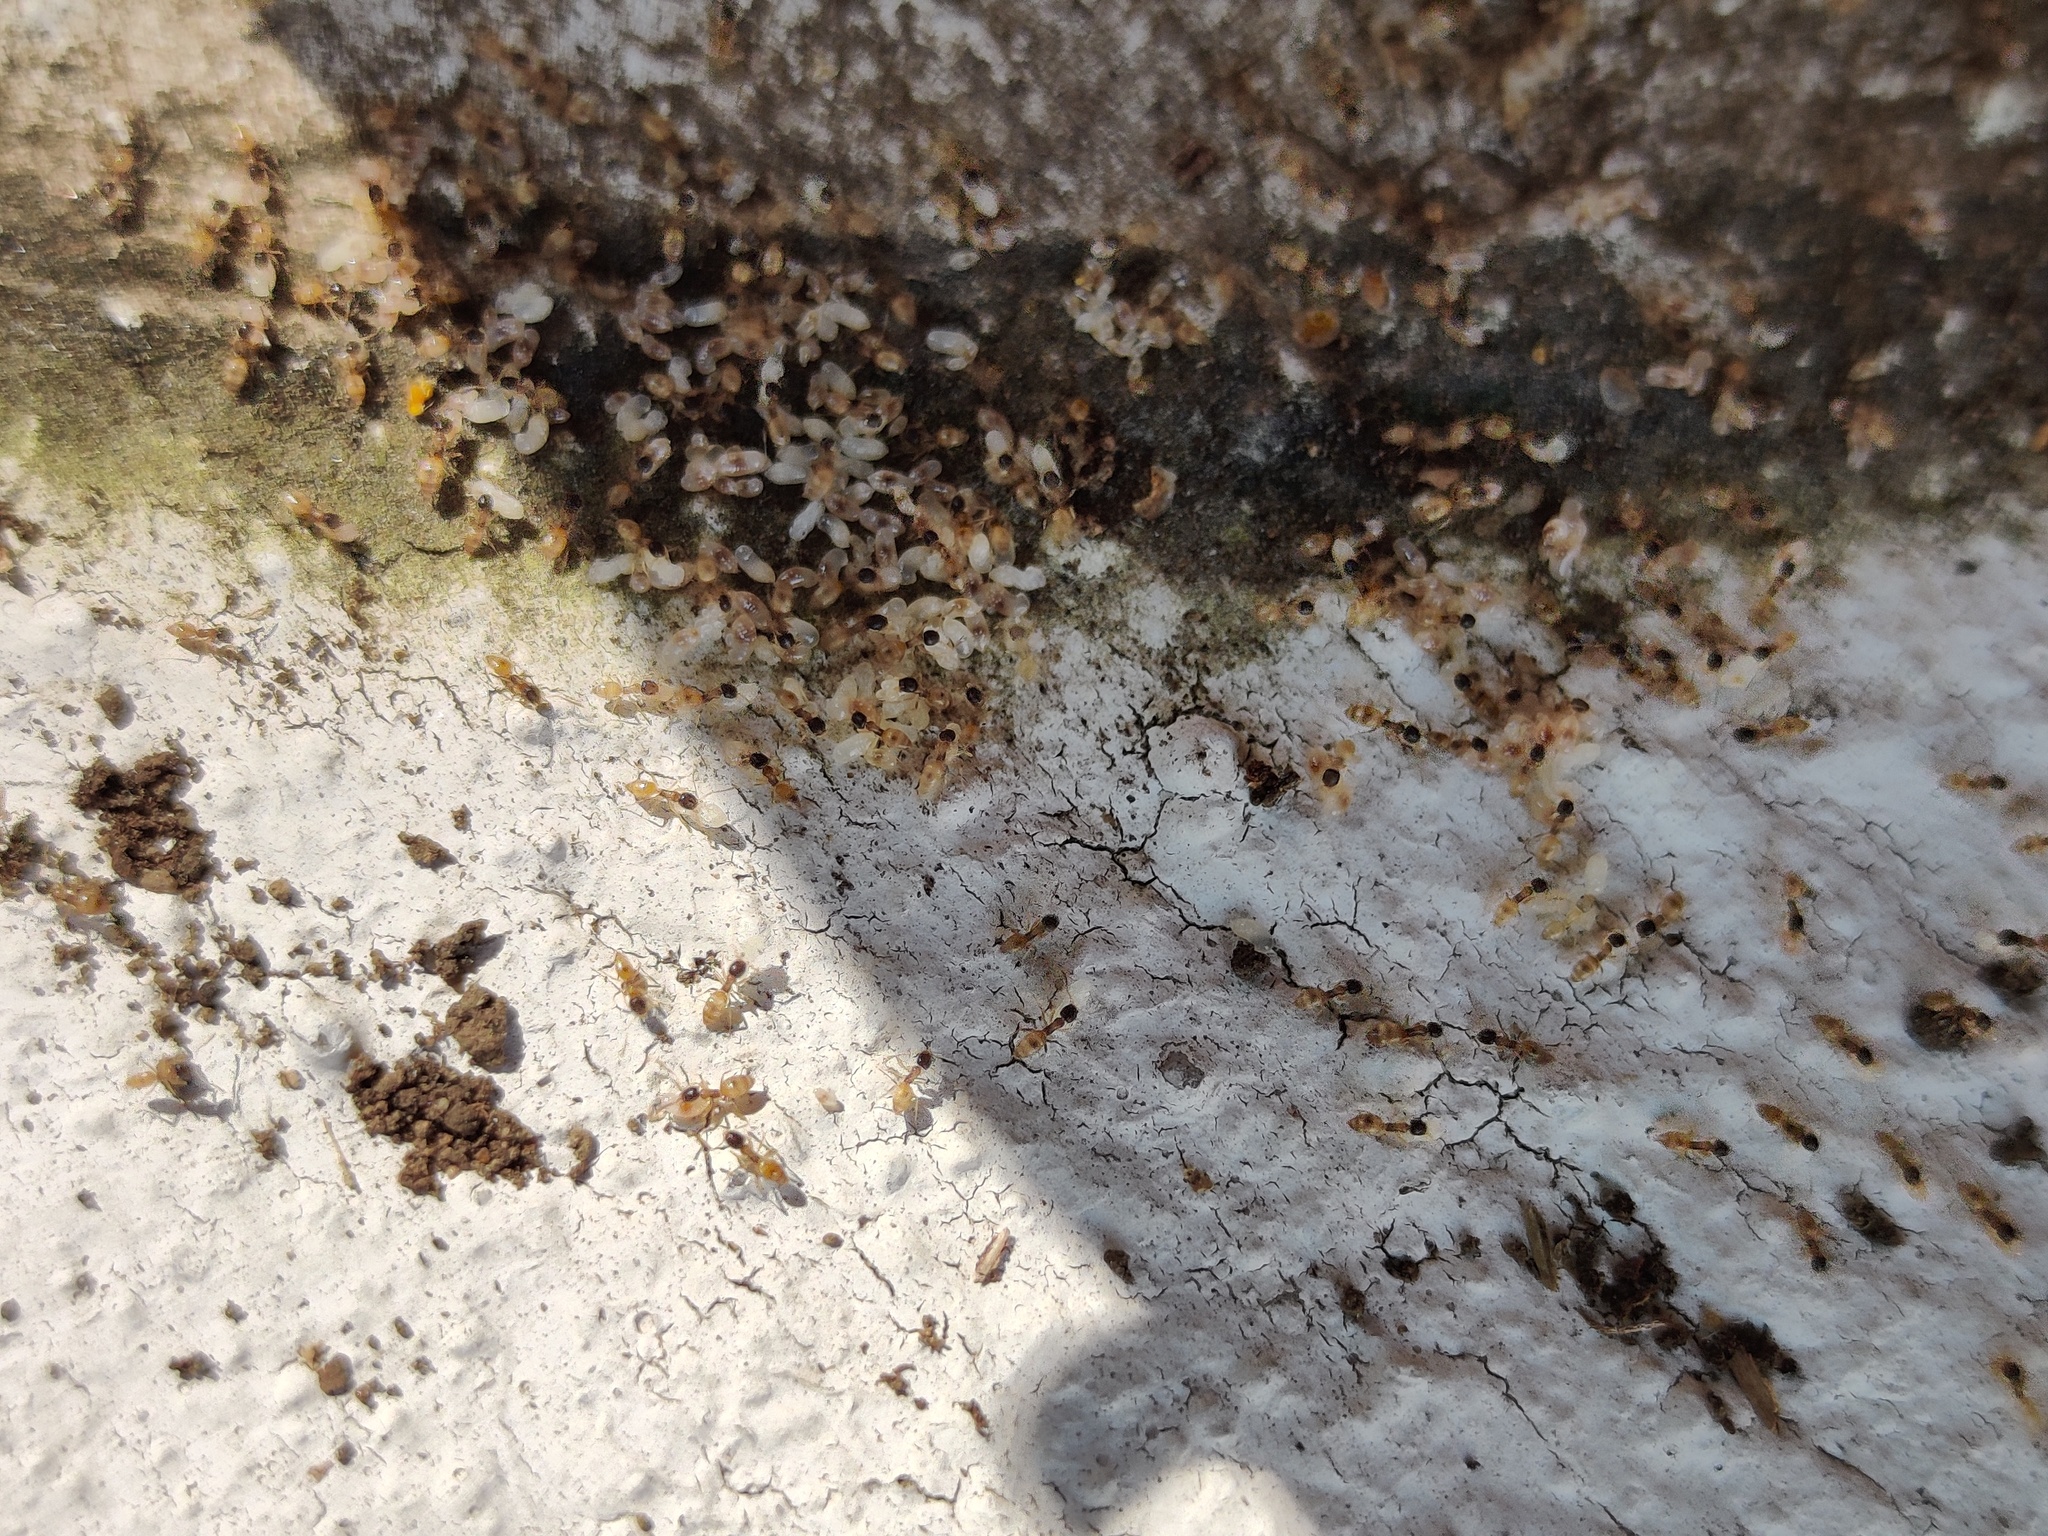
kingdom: Animalia
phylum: Arthropoda
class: Insecta
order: Hymenoptera
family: Formicidae
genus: Tapinoma
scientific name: Tapinoma melanocephalum
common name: Ghost ant
